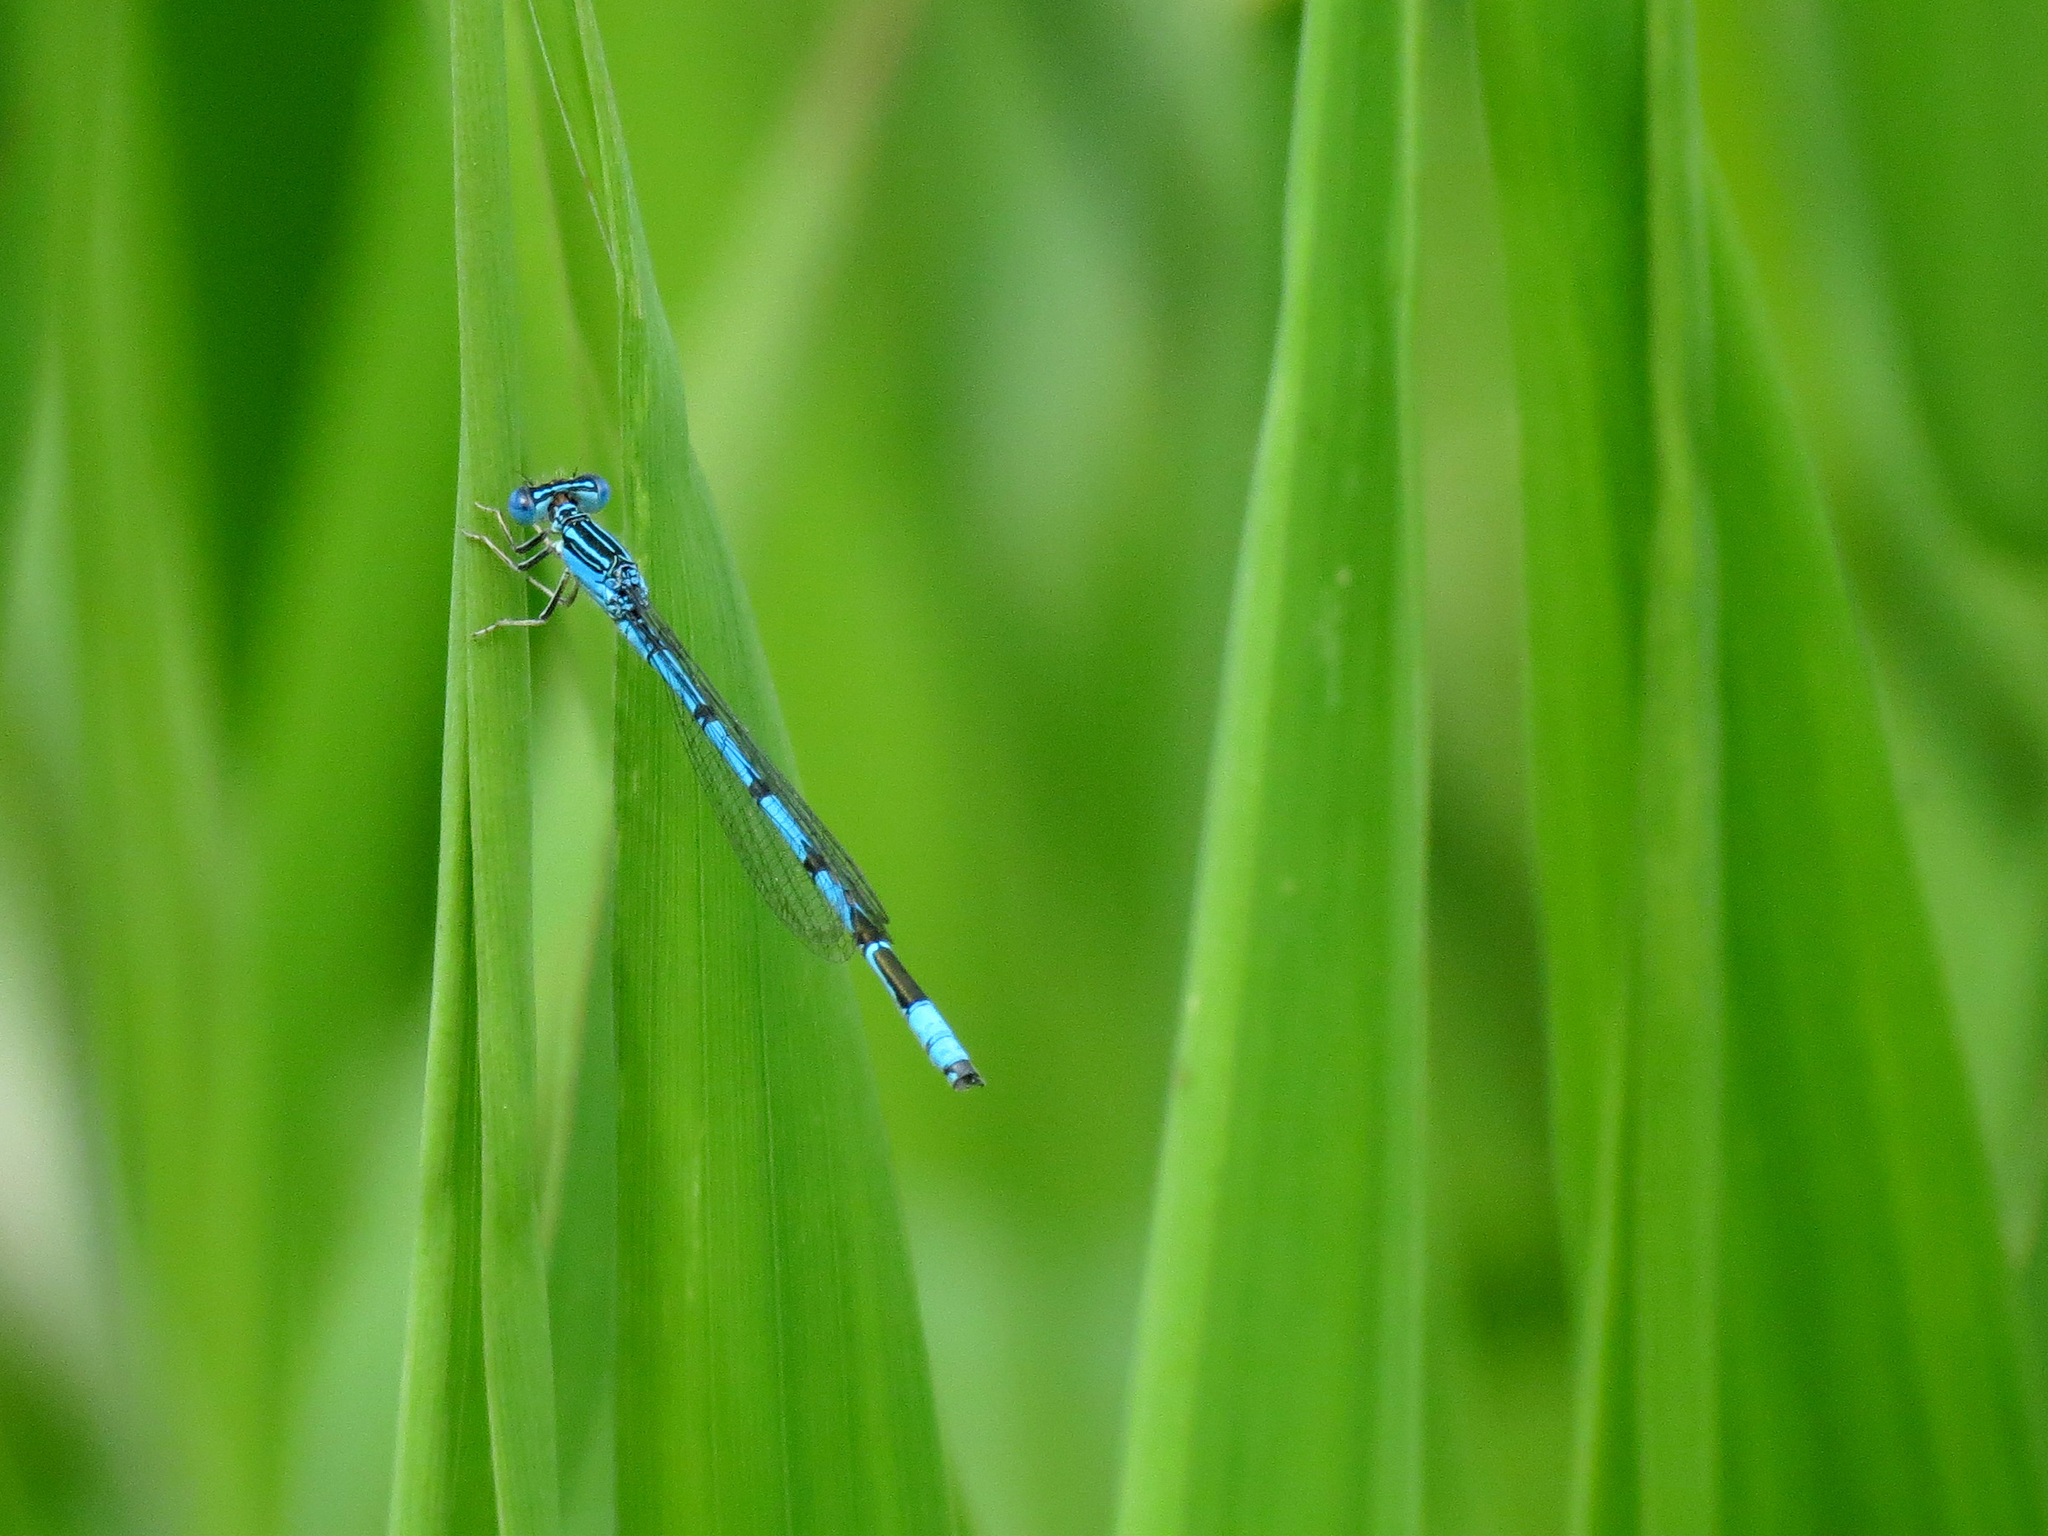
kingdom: Animalia
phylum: Arthropoda
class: Insecta
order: Odonata
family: Coenagrionidae
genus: Enallagma
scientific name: Enallagma basidens
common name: Double-striped bluet
